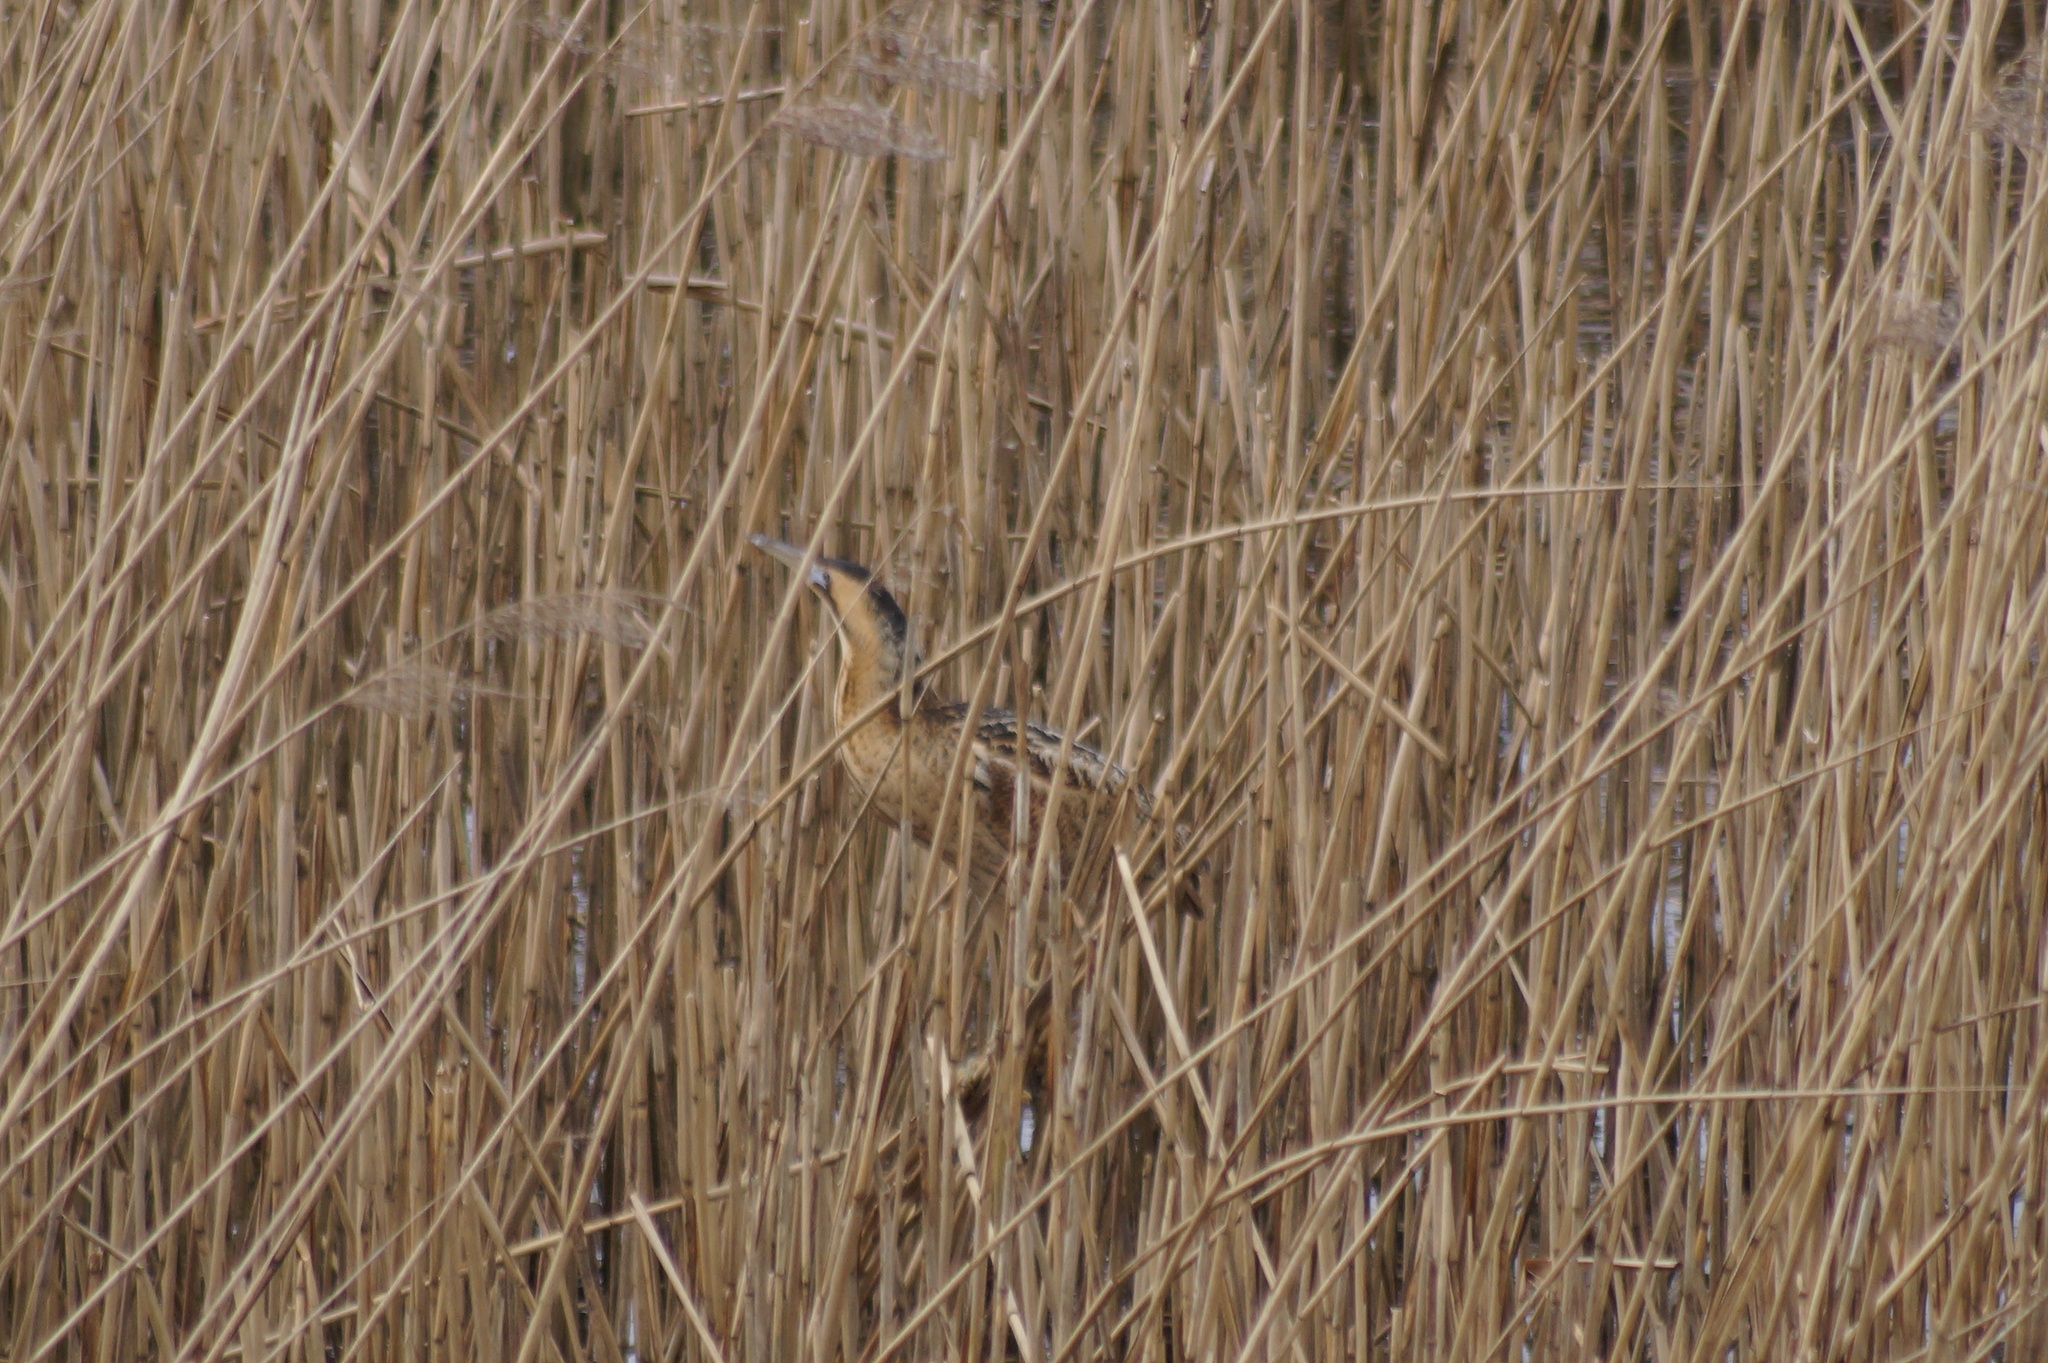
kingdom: Animalia
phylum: Chordata
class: Aves
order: Pelecaniformes
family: Ardeidae
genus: Botaurus
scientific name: Botaurus stellaris
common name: Eurasian bittern
